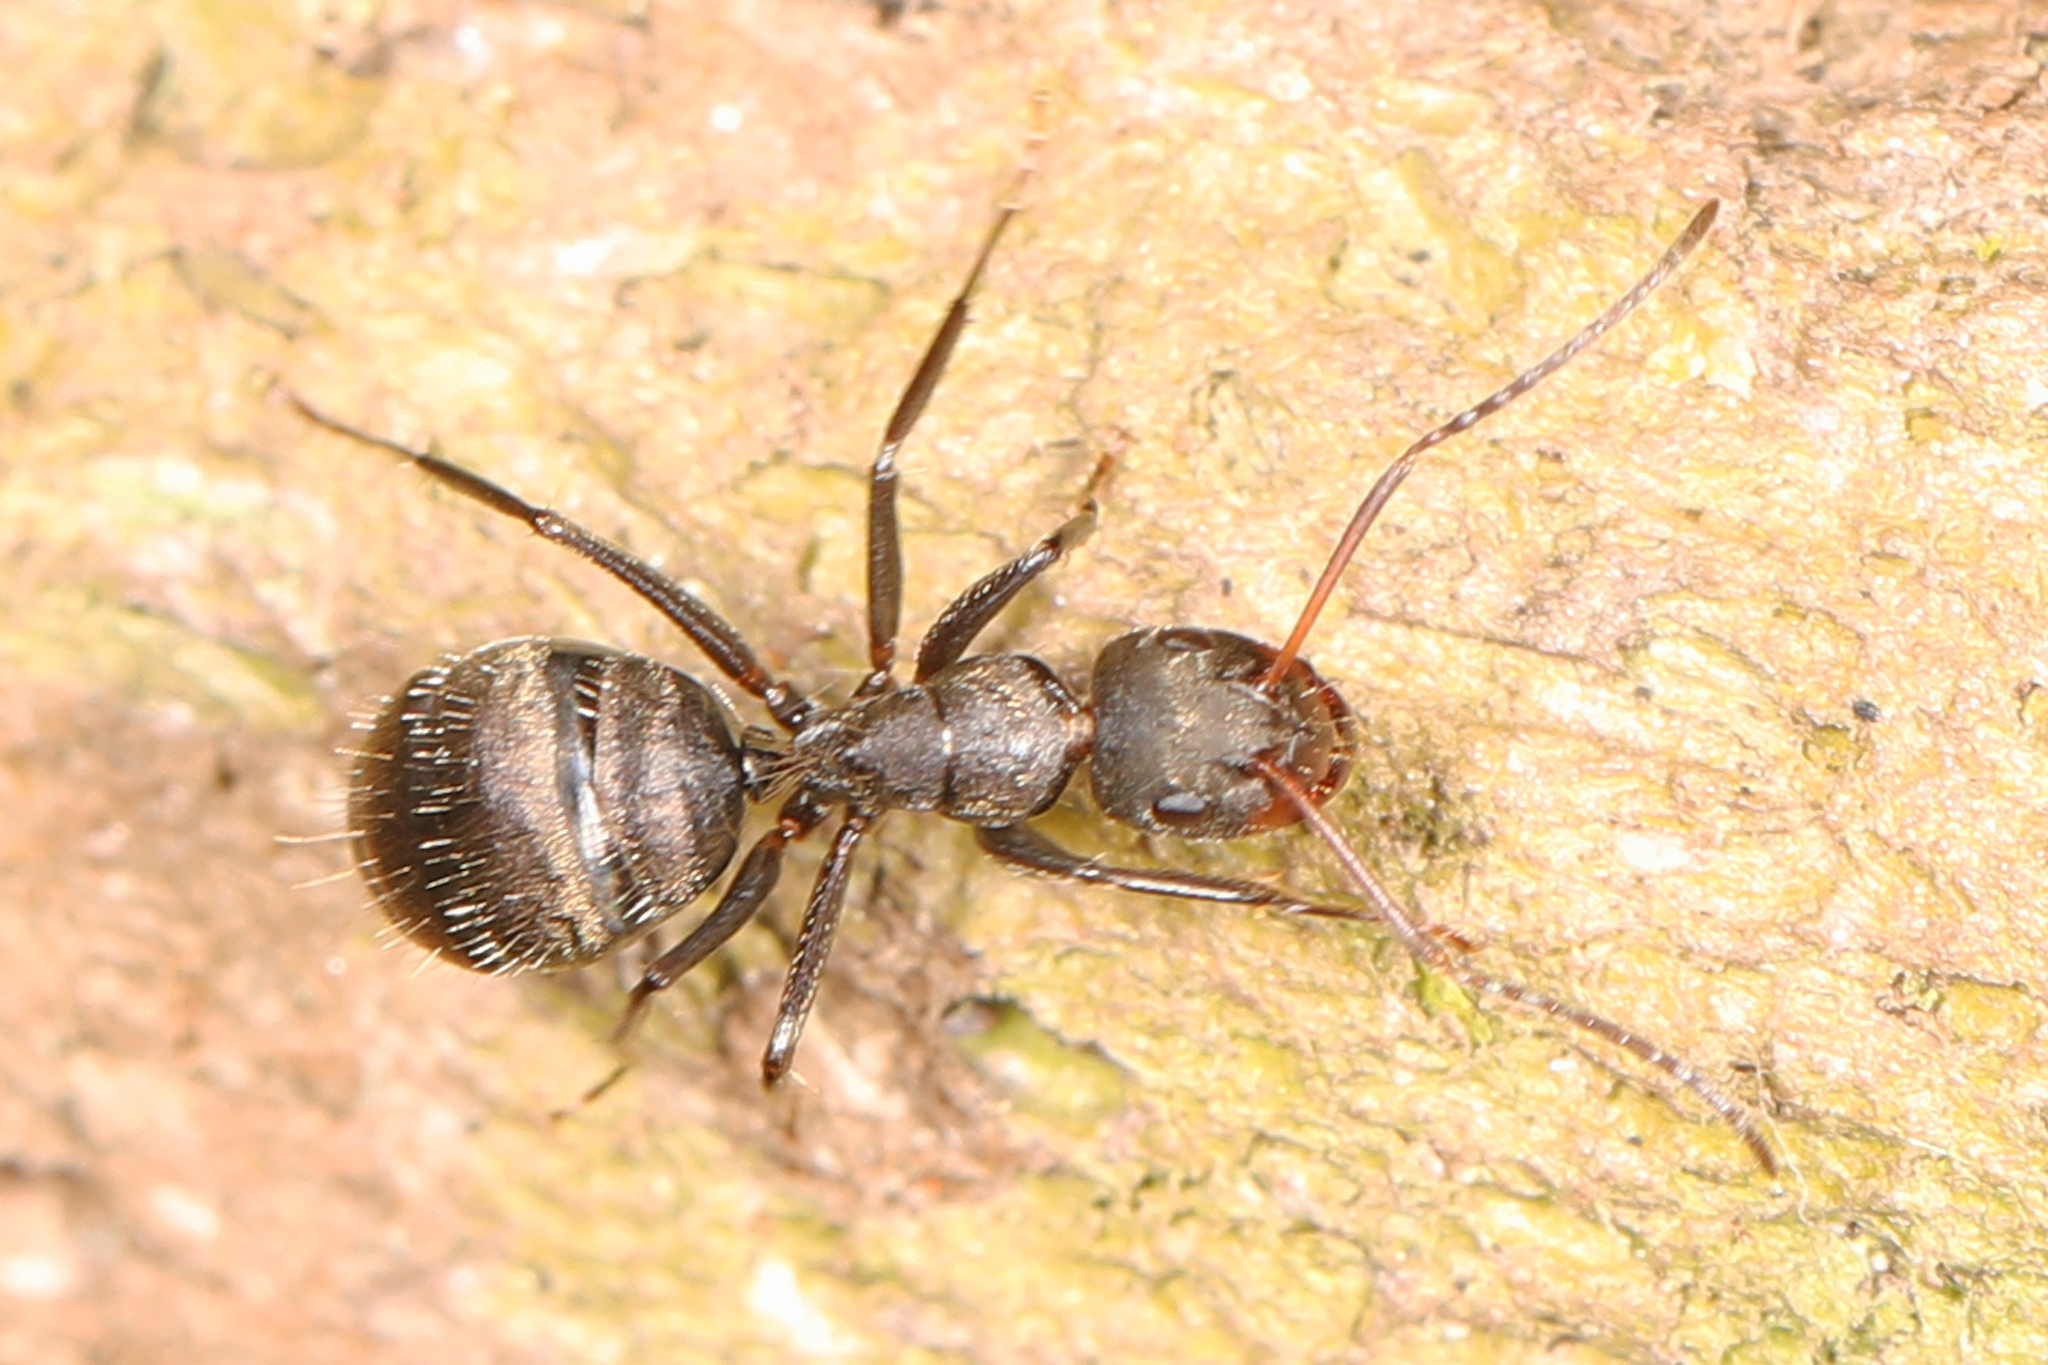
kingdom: Animalia
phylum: Arthropoda
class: Insecta
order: Hymenoptera
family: Formicidae
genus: Camponotus
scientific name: Camponotus novogranadensis
